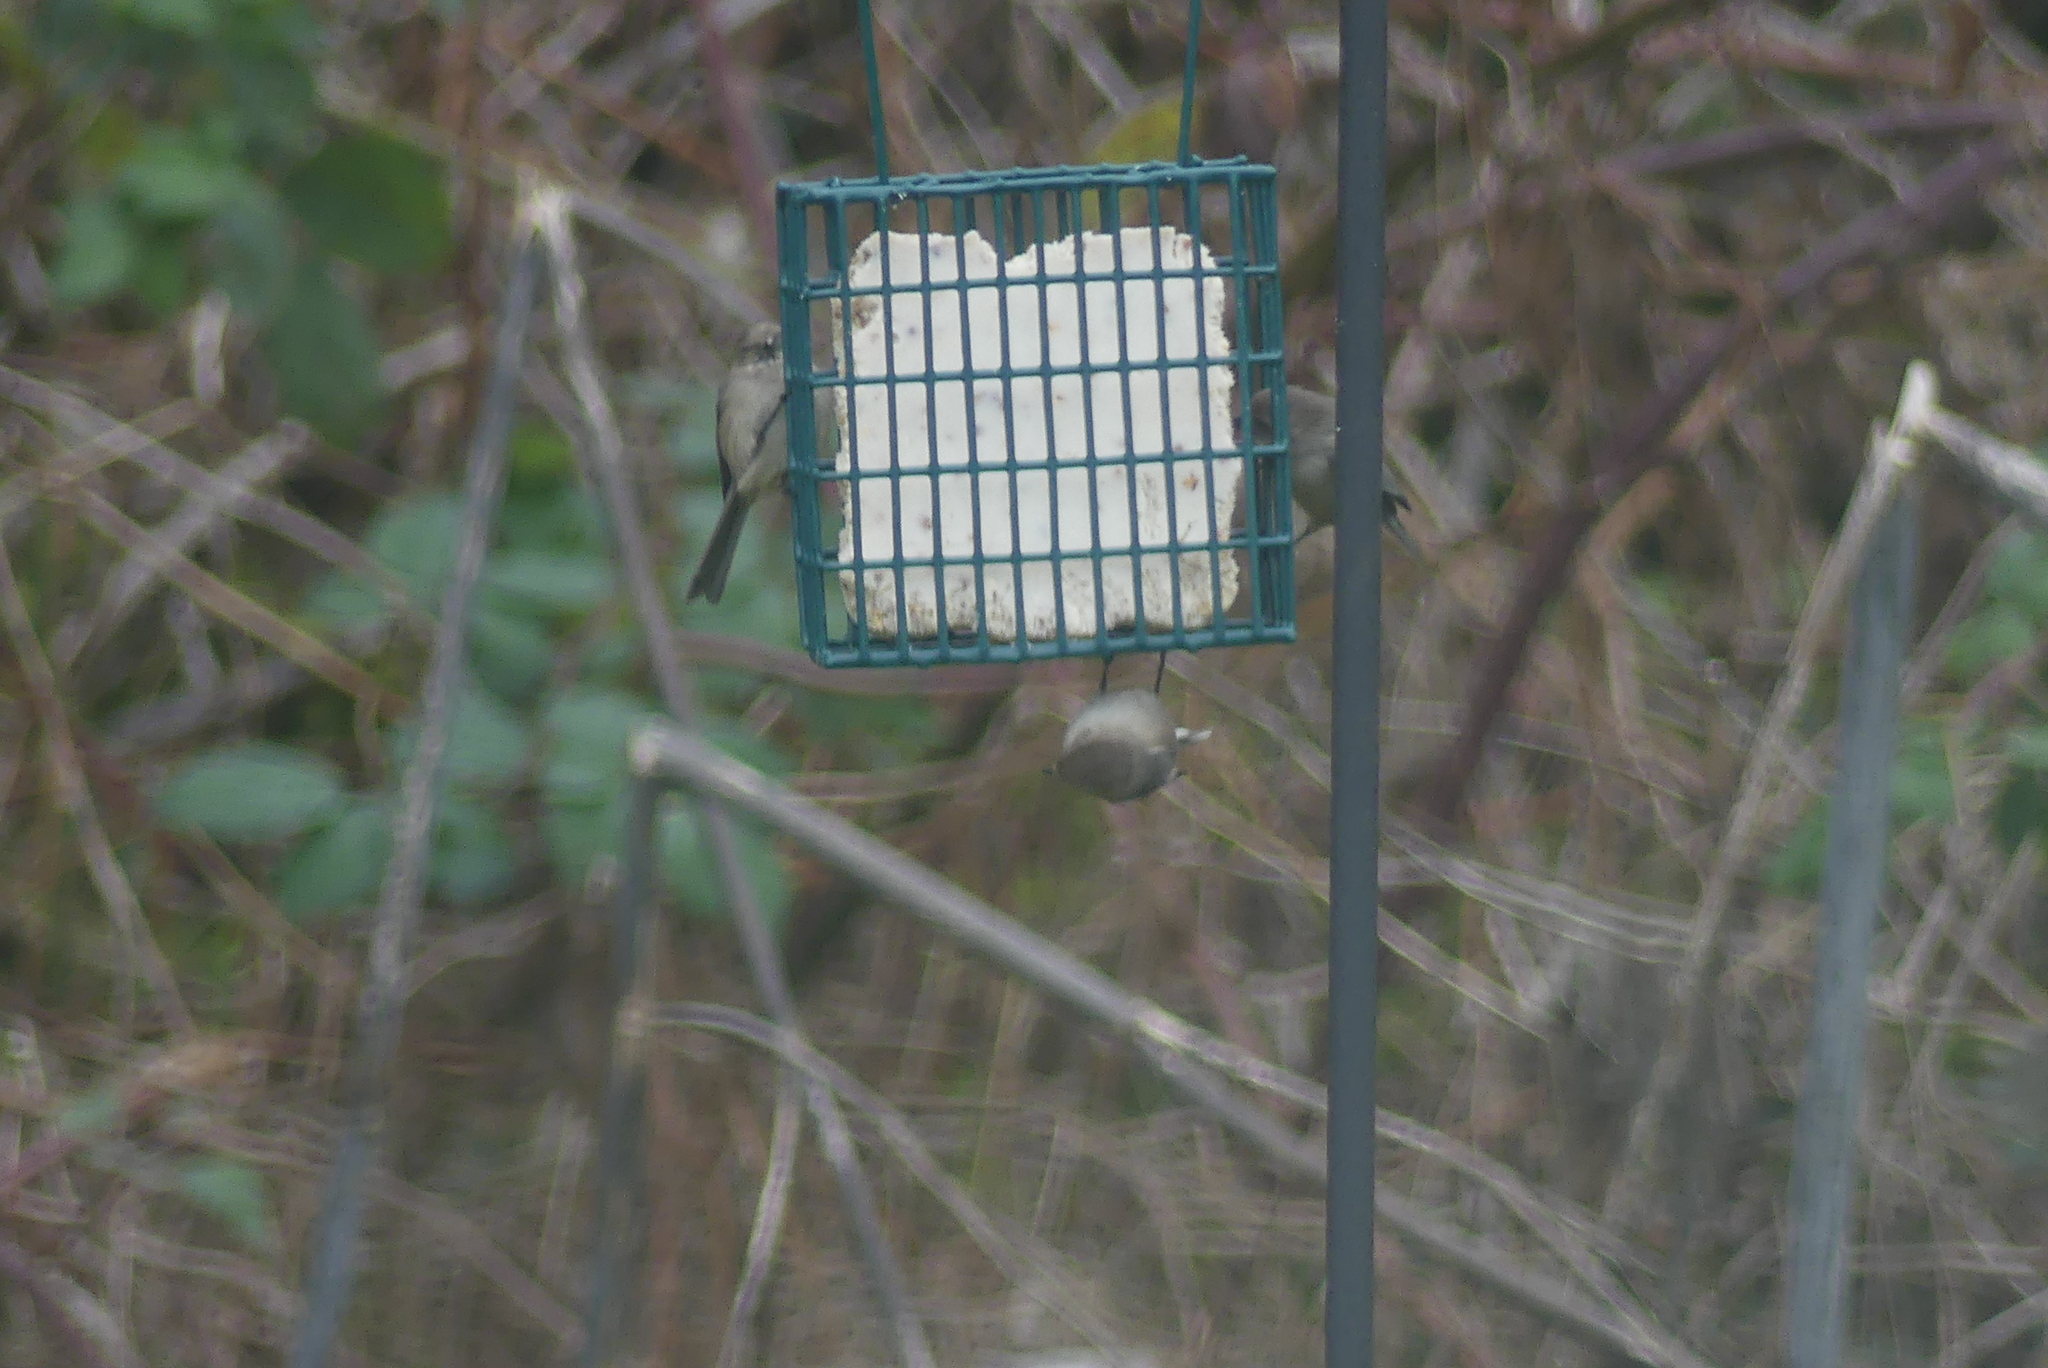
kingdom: Animalia
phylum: Chordata
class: Aves
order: Passeriformes
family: Aegithalidae
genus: Psaltriparus
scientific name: Psaltriparus minimus
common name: American bushtit
